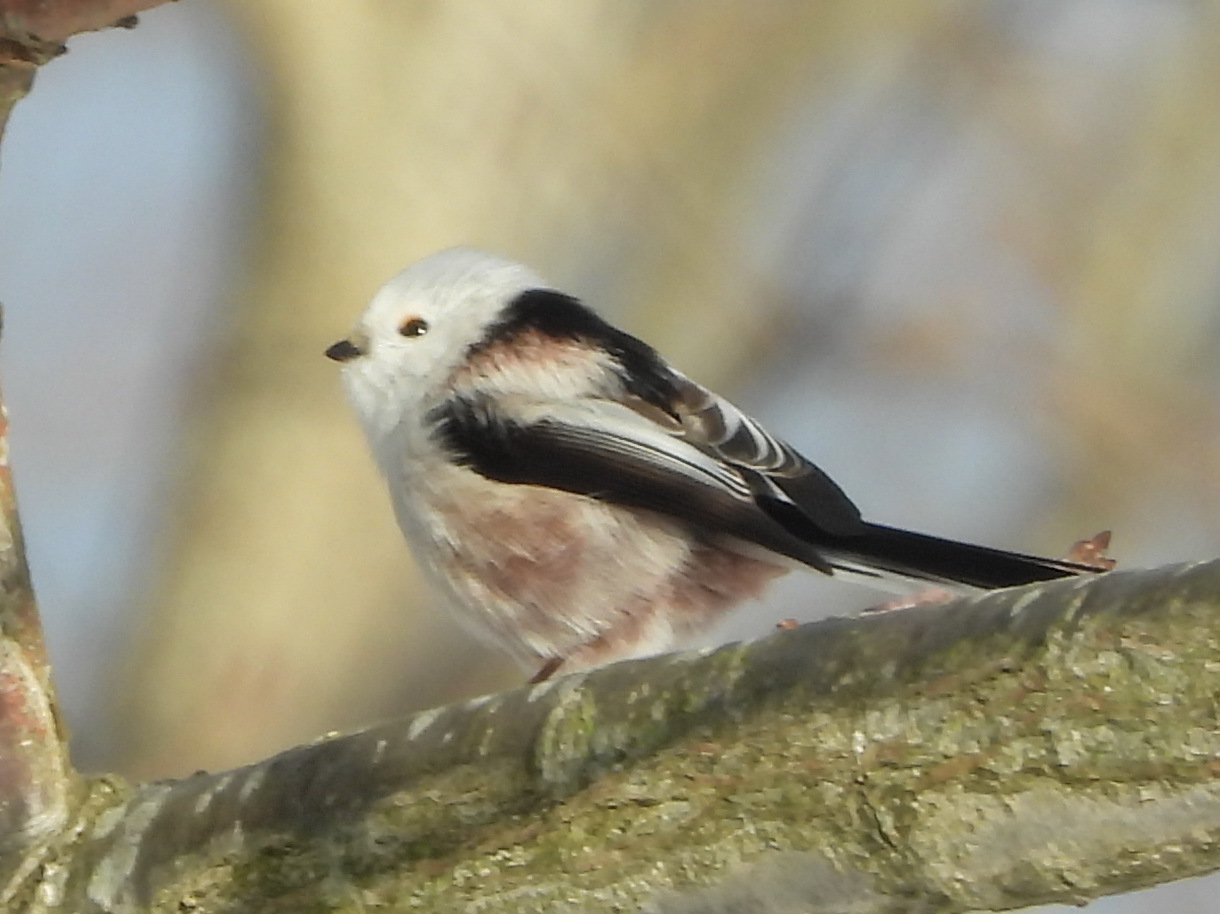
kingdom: Animalia
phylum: Chordata
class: Aves
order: Passeriformes
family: Aegithalidae
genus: Aegithalos
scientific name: Aegithalos caudatus
